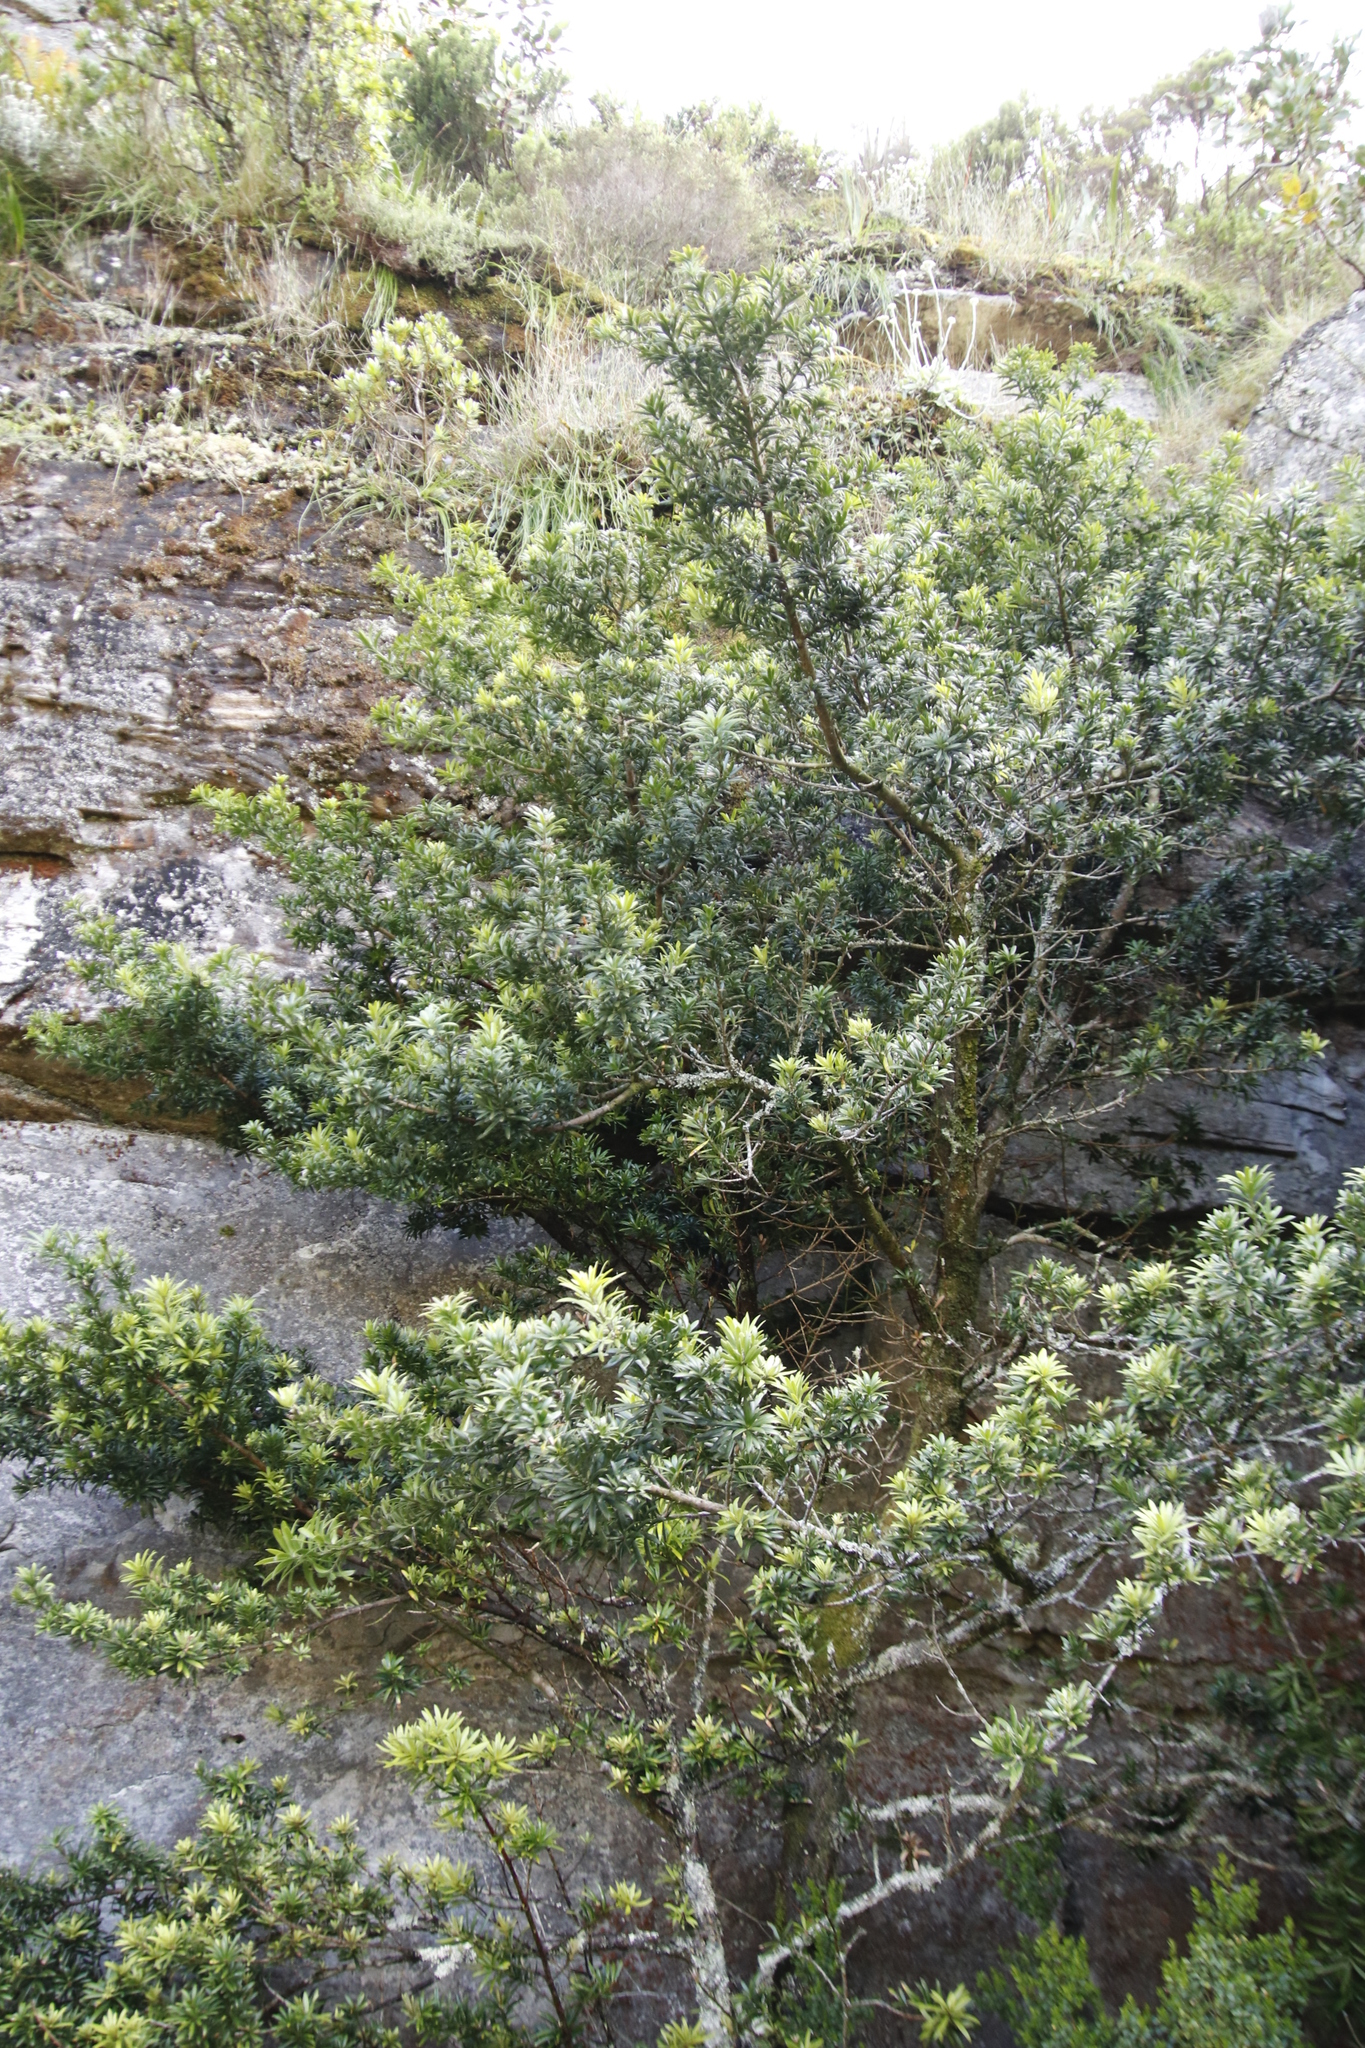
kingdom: Plantae
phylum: Tracheophyta
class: Pinopsida
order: Pinales
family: Podocarpaceae
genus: Podocarpus
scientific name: Podocarpus latifolius
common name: True yellowwood
